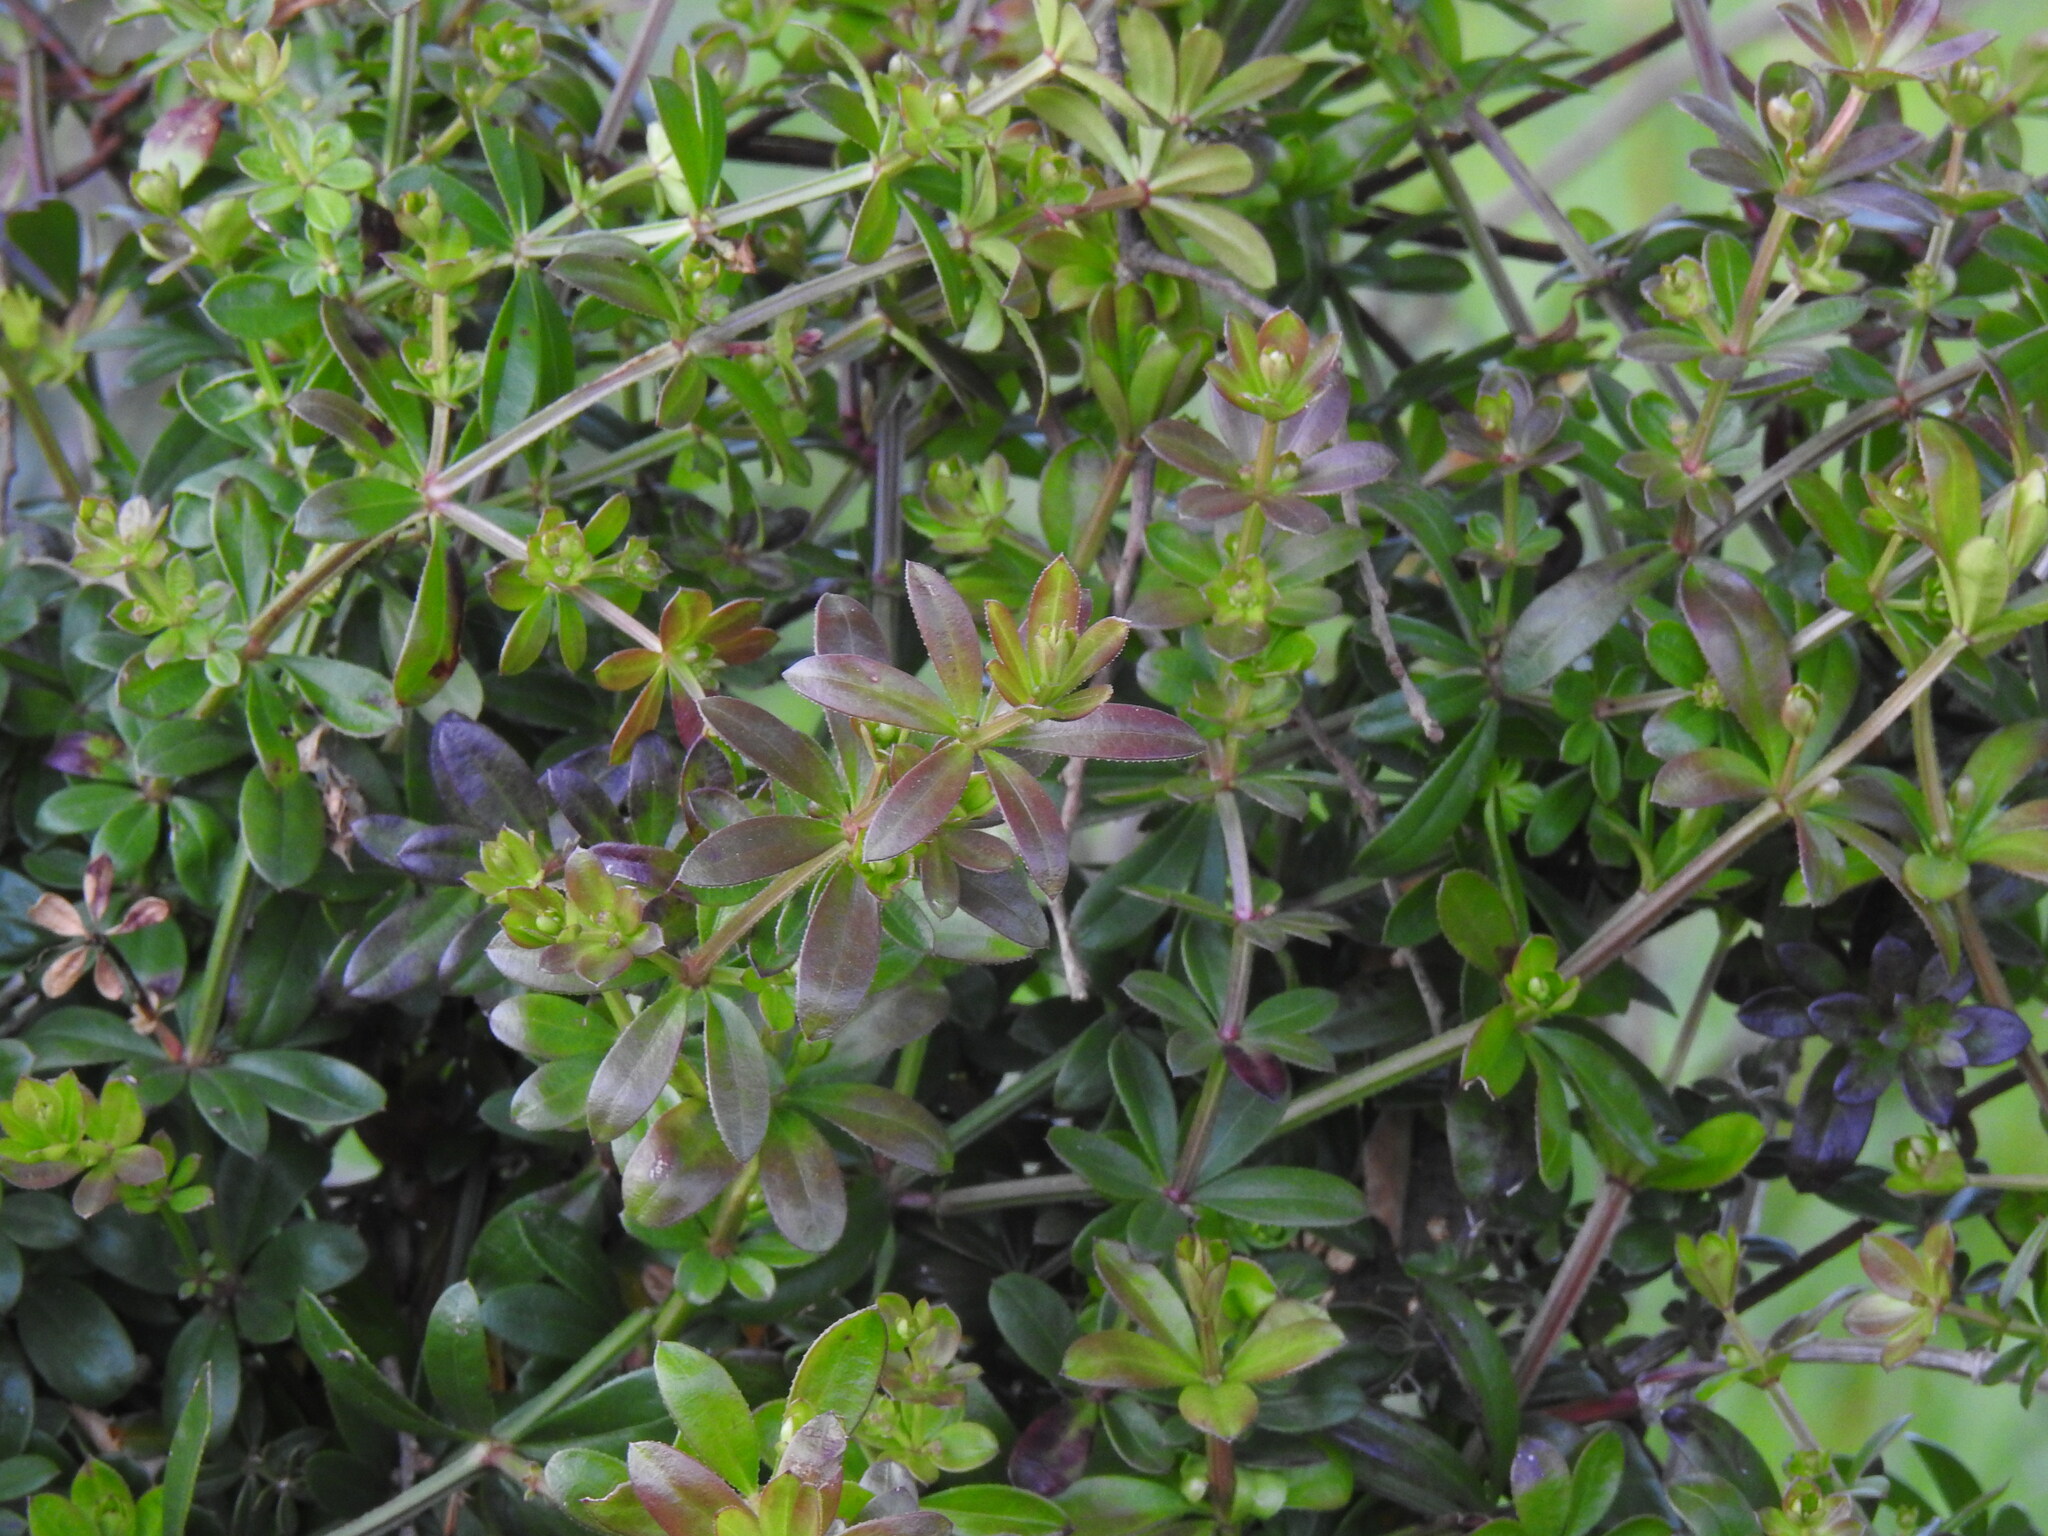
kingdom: Plantae
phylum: Tracheophyta
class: Magnoliopsida
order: Gentianales
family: Rubiaceae
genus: Rubia
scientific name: Rubia peregrina
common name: Wild madder
